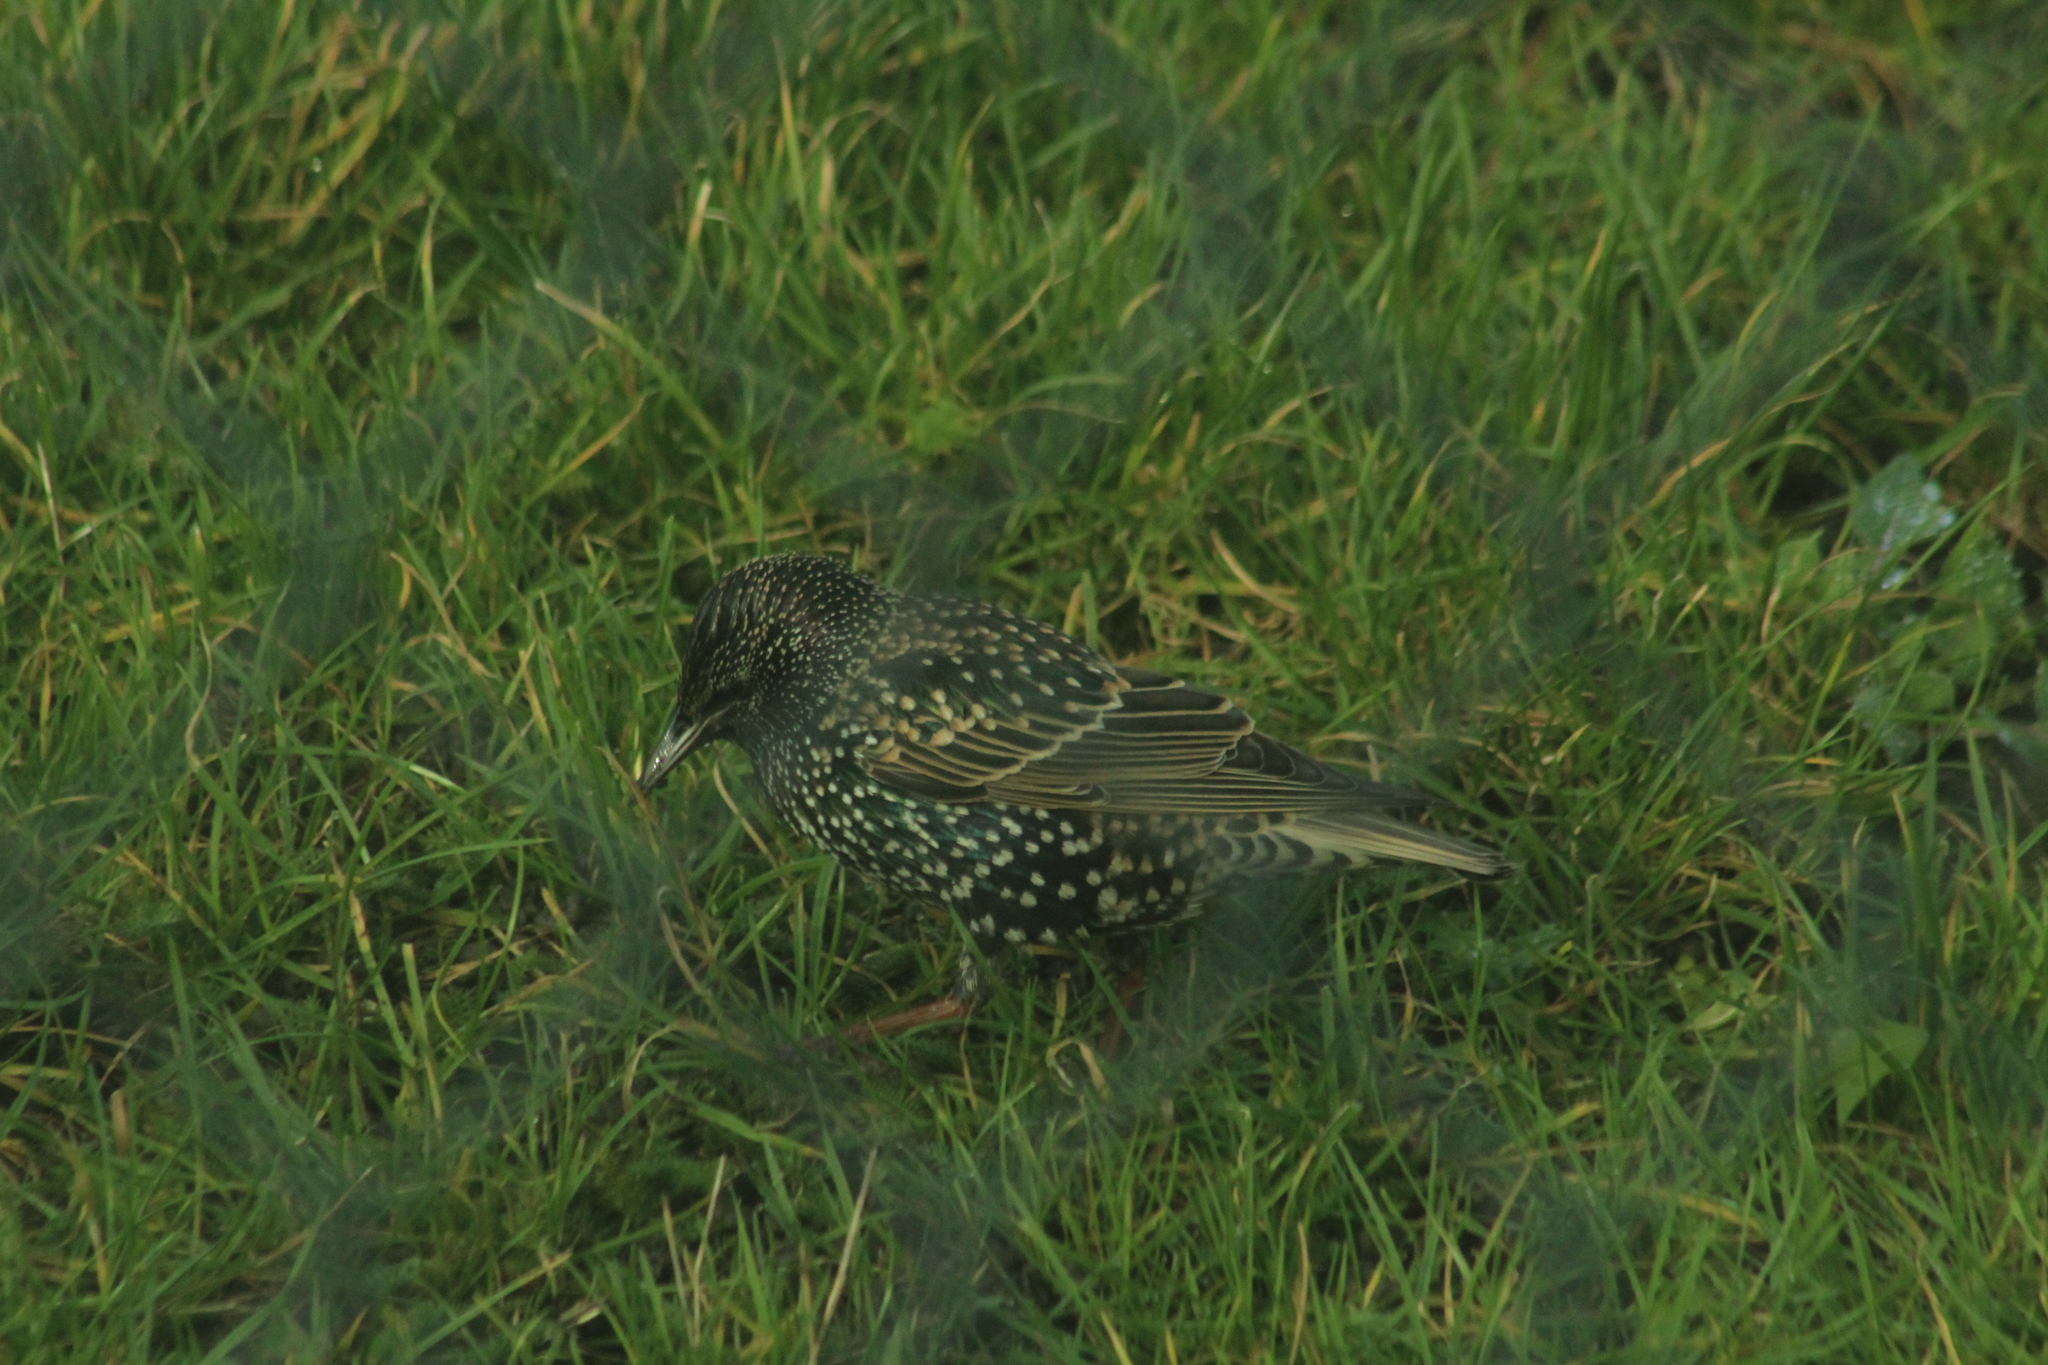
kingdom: Animalia
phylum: Chordata
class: Aves
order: Passeriformes
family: Sturnidae
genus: Sturnus
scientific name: Sturnus vulgaris
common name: Common starling
